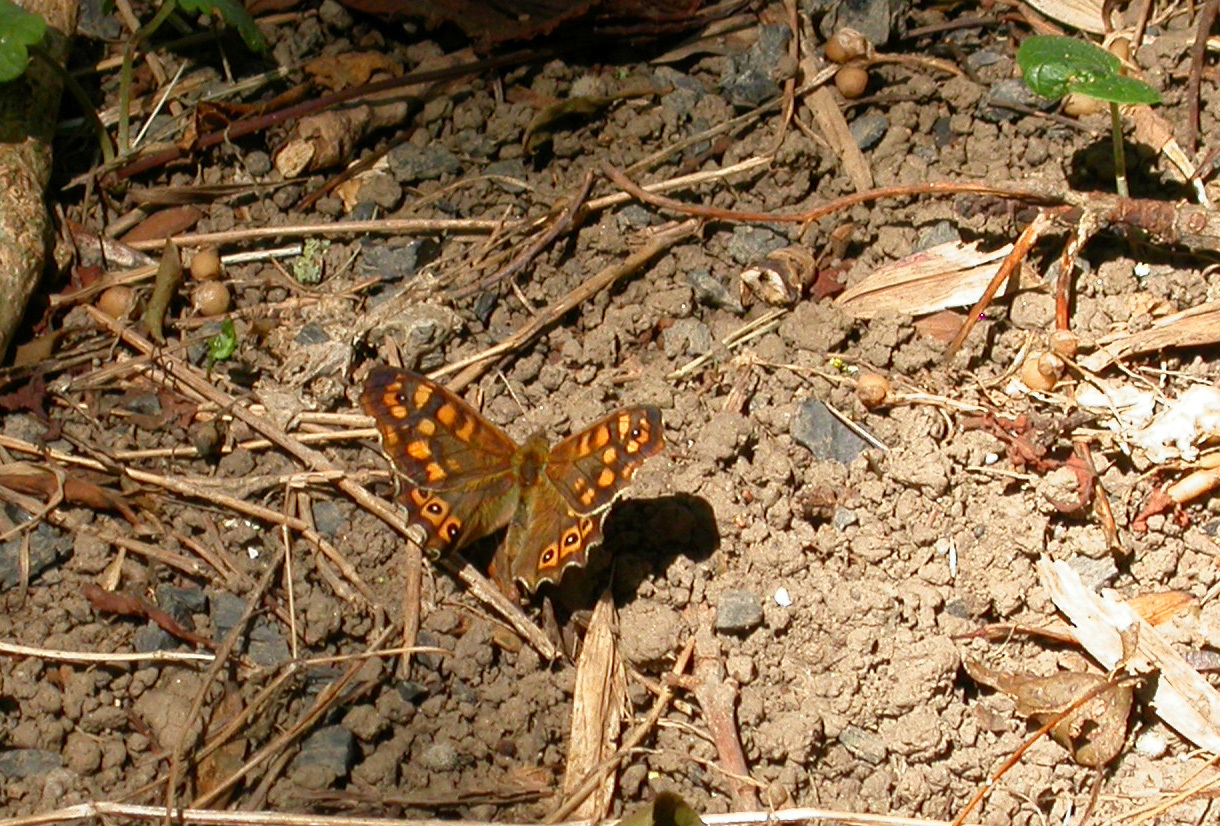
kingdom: Animalia
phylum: Arthropoda
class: Insecta
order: Lepidoptera
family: Nymphalidae
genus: Pararge
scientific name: Pararge aegeria
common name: Speckled wood
